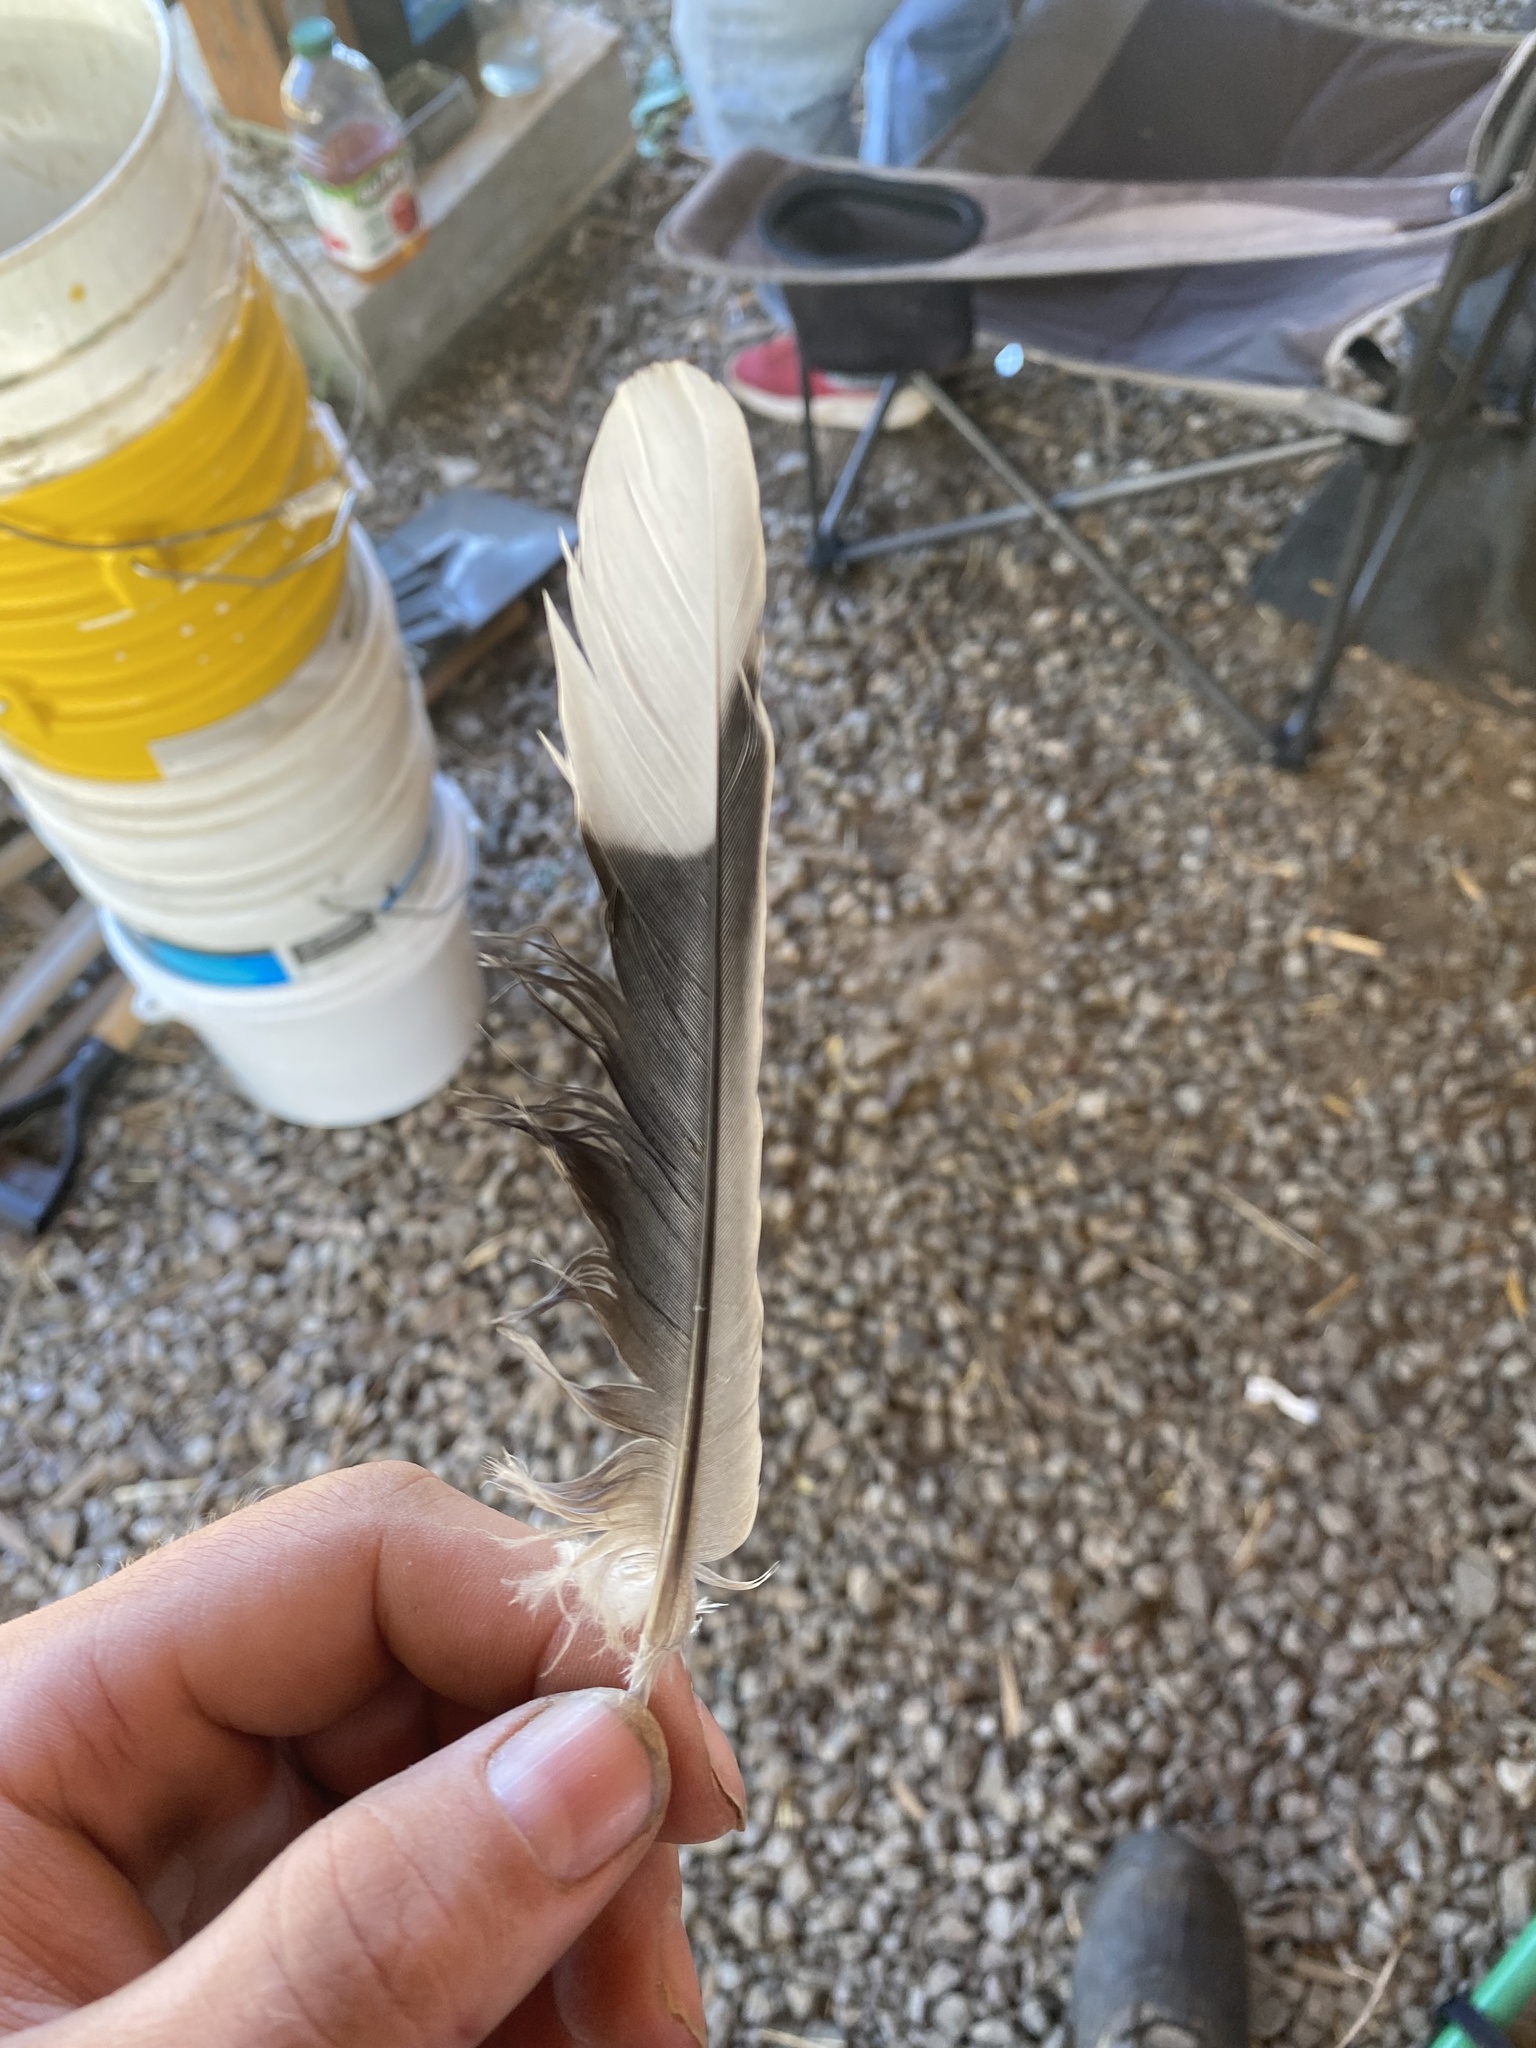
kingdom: Animalia
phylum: Chordata
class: Aves
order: Columbiformes
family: Columbidae
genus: Streptopelia
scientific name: Streptopelia decaocto
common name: Eurasian collared dove
